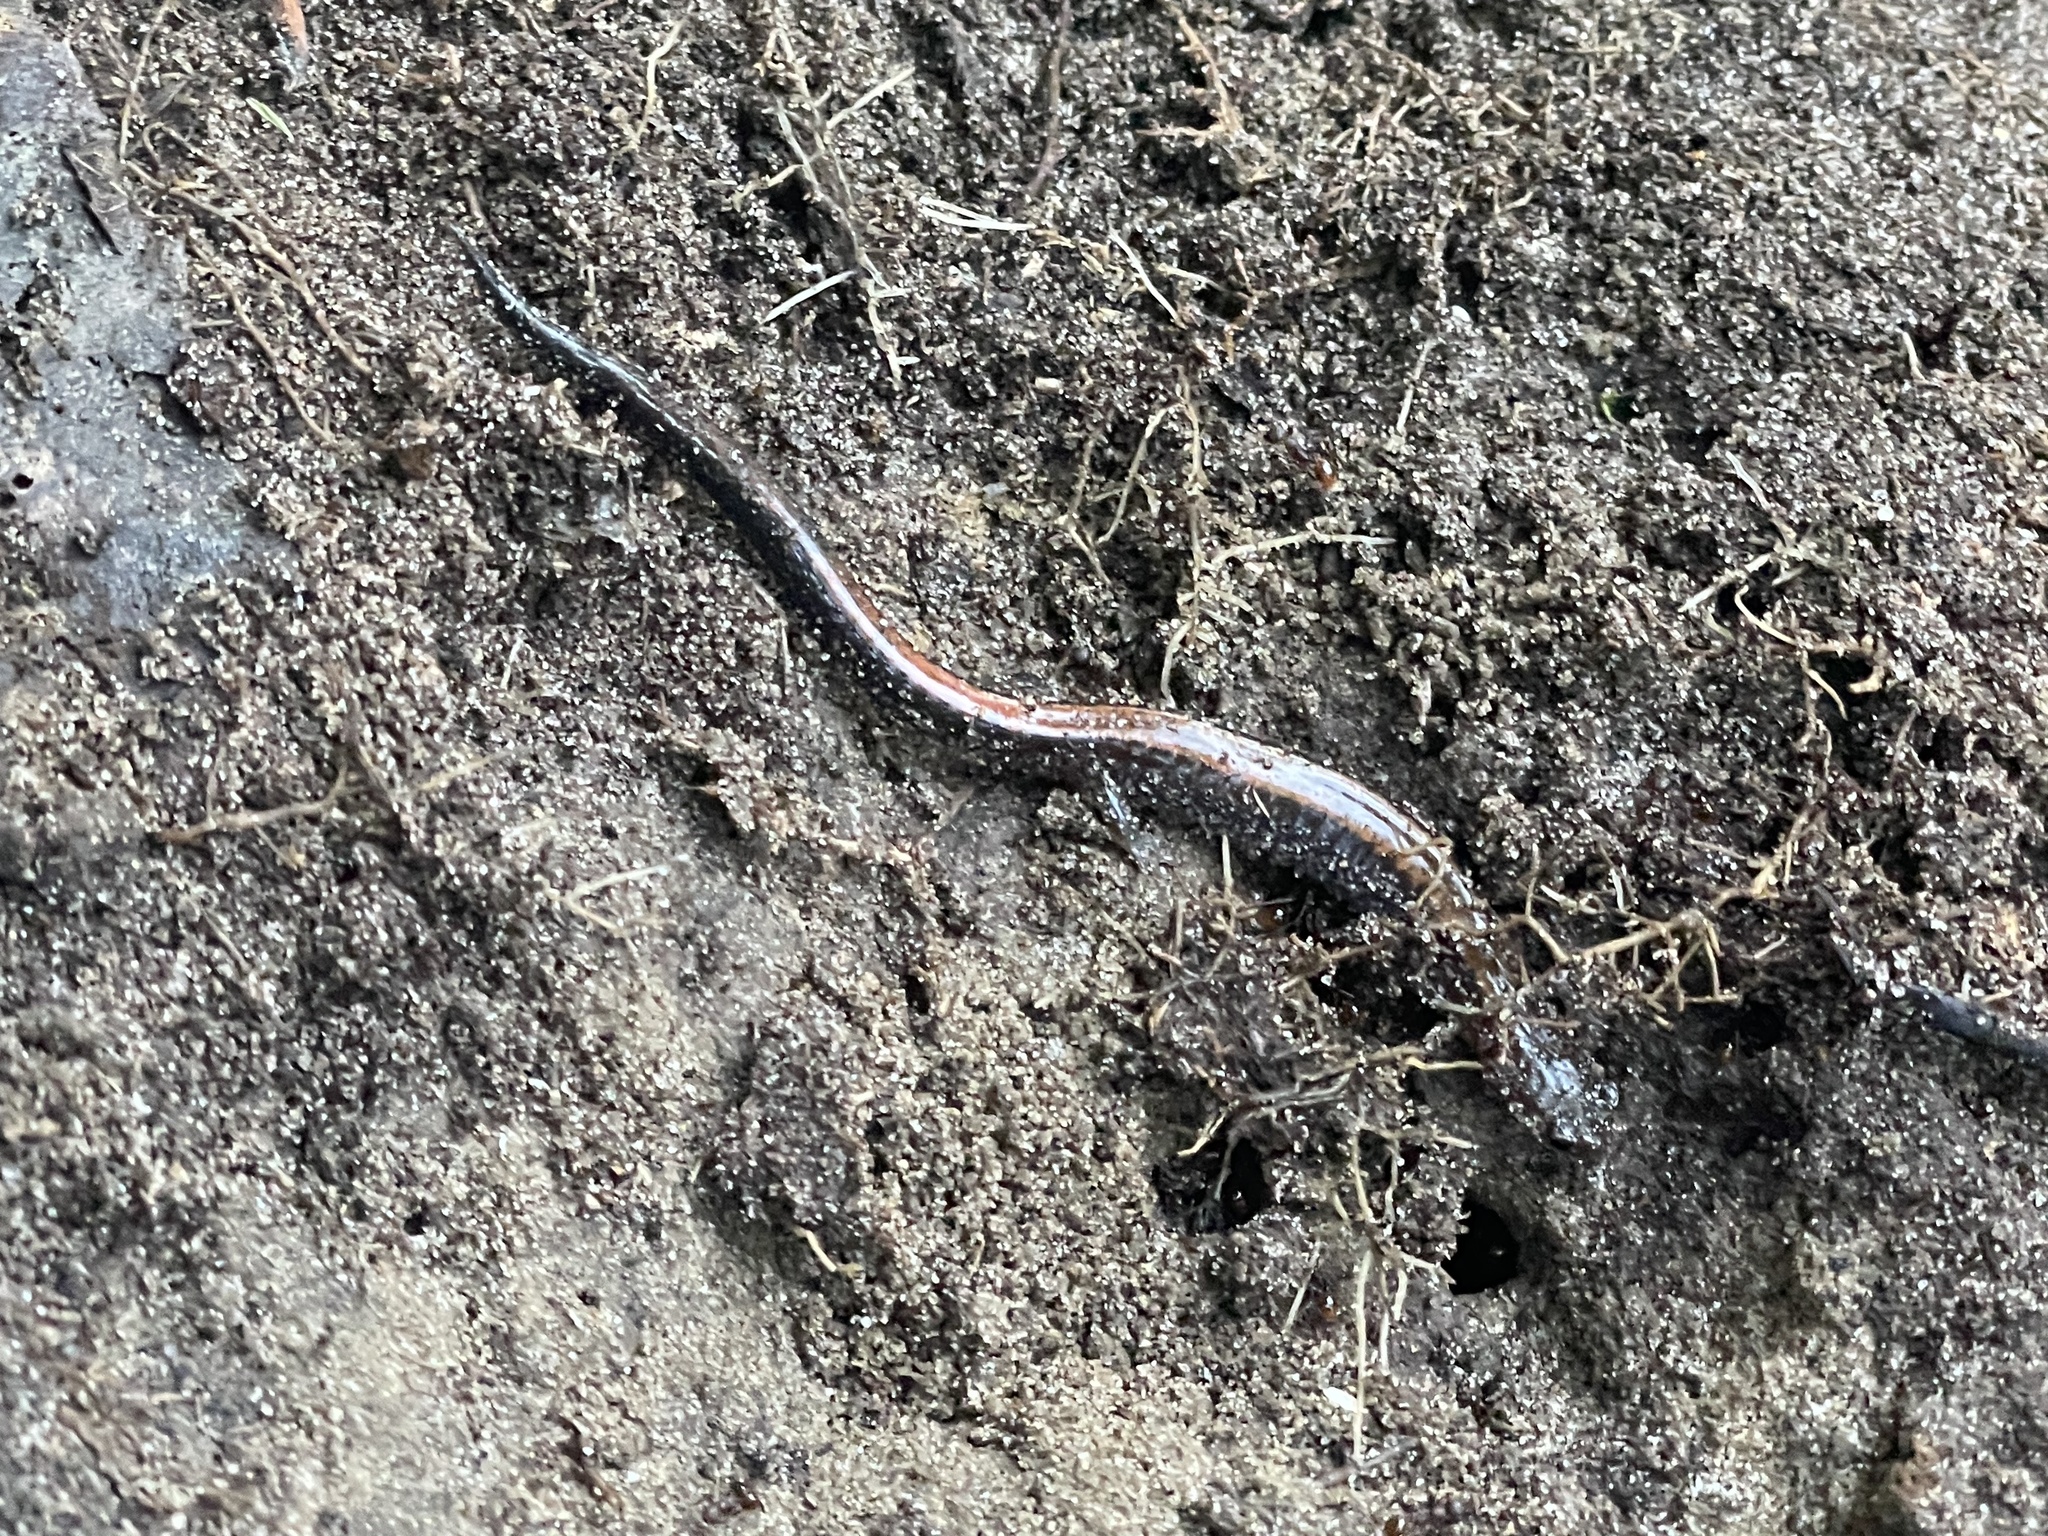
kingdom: Animalia
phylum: Chordata
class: Amphibia
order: Caudata
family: Plethodontidae
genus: Plethodon
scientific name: Plethodon cinereus
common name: Redback salamander
